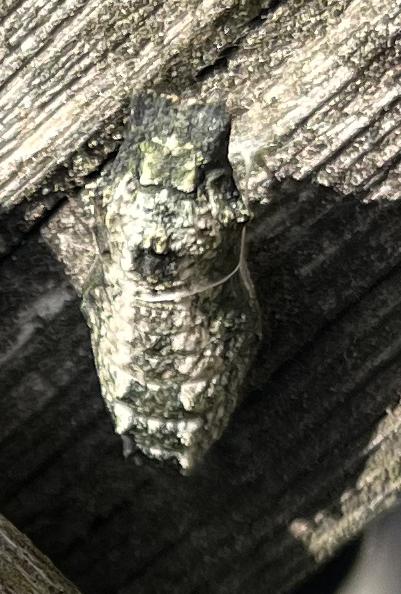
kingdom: Animalia
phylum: Arthropoda
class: Insecta
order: Lepidoptera
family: Papilionidae
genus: Papilio
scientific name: Papilio machaon
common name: Swallowtail
